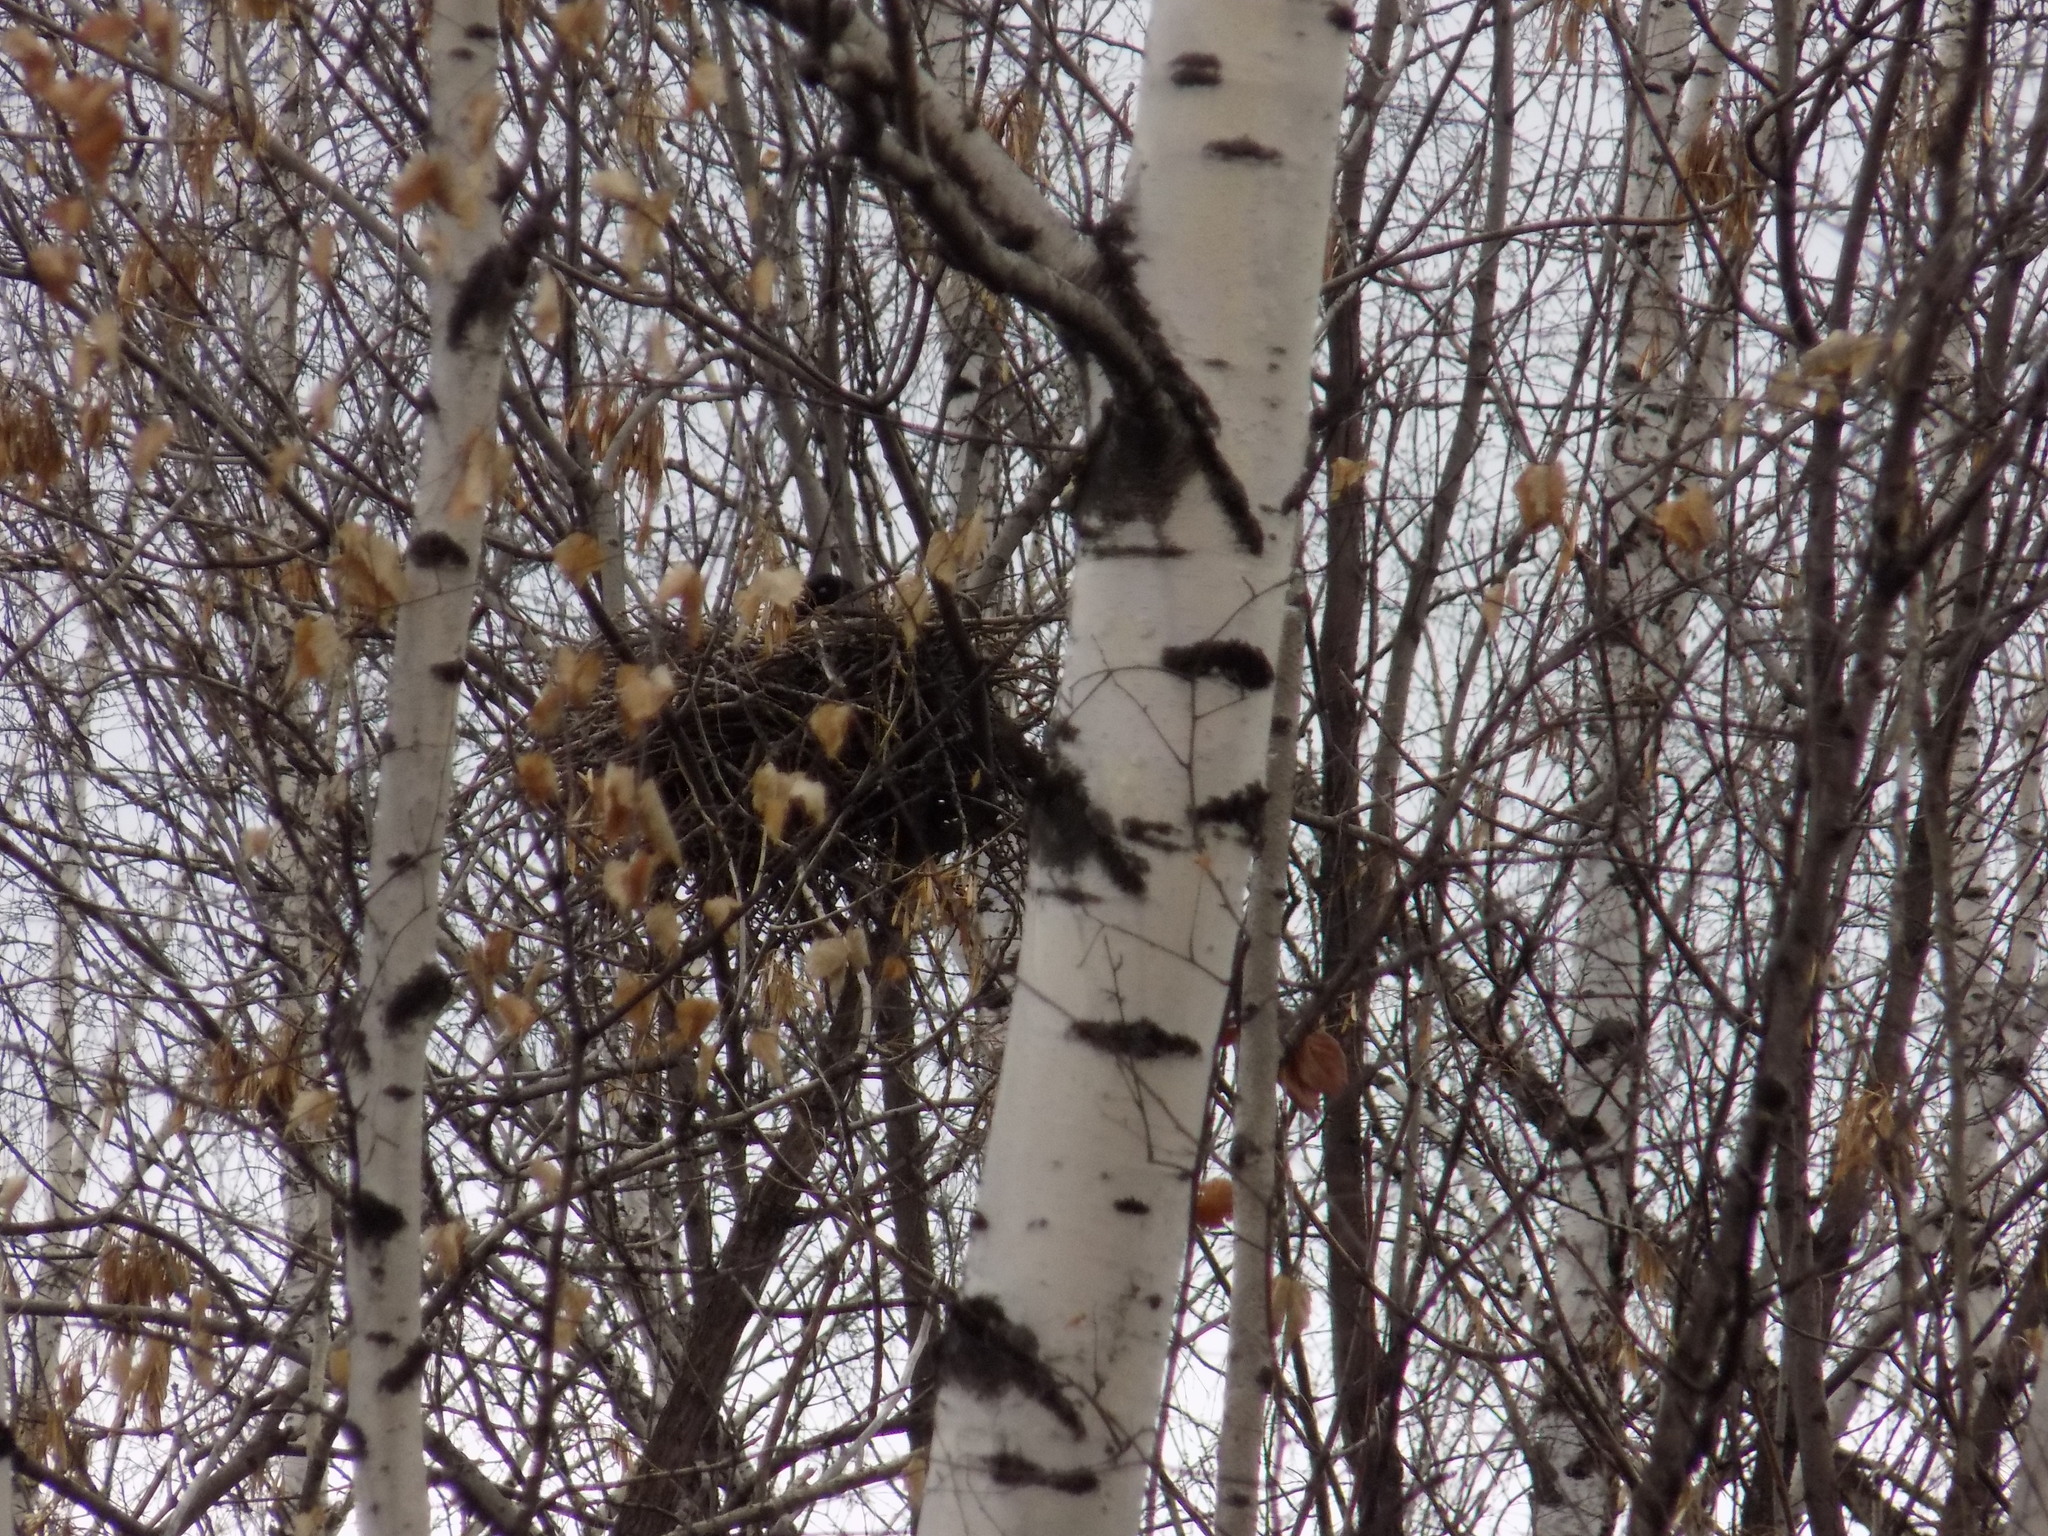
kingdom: Animalia
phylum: Chordata
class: Aves
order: Passeriformes
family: Corvidae
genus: Corvus
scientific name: Corvus cornix
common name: Hooded crow
